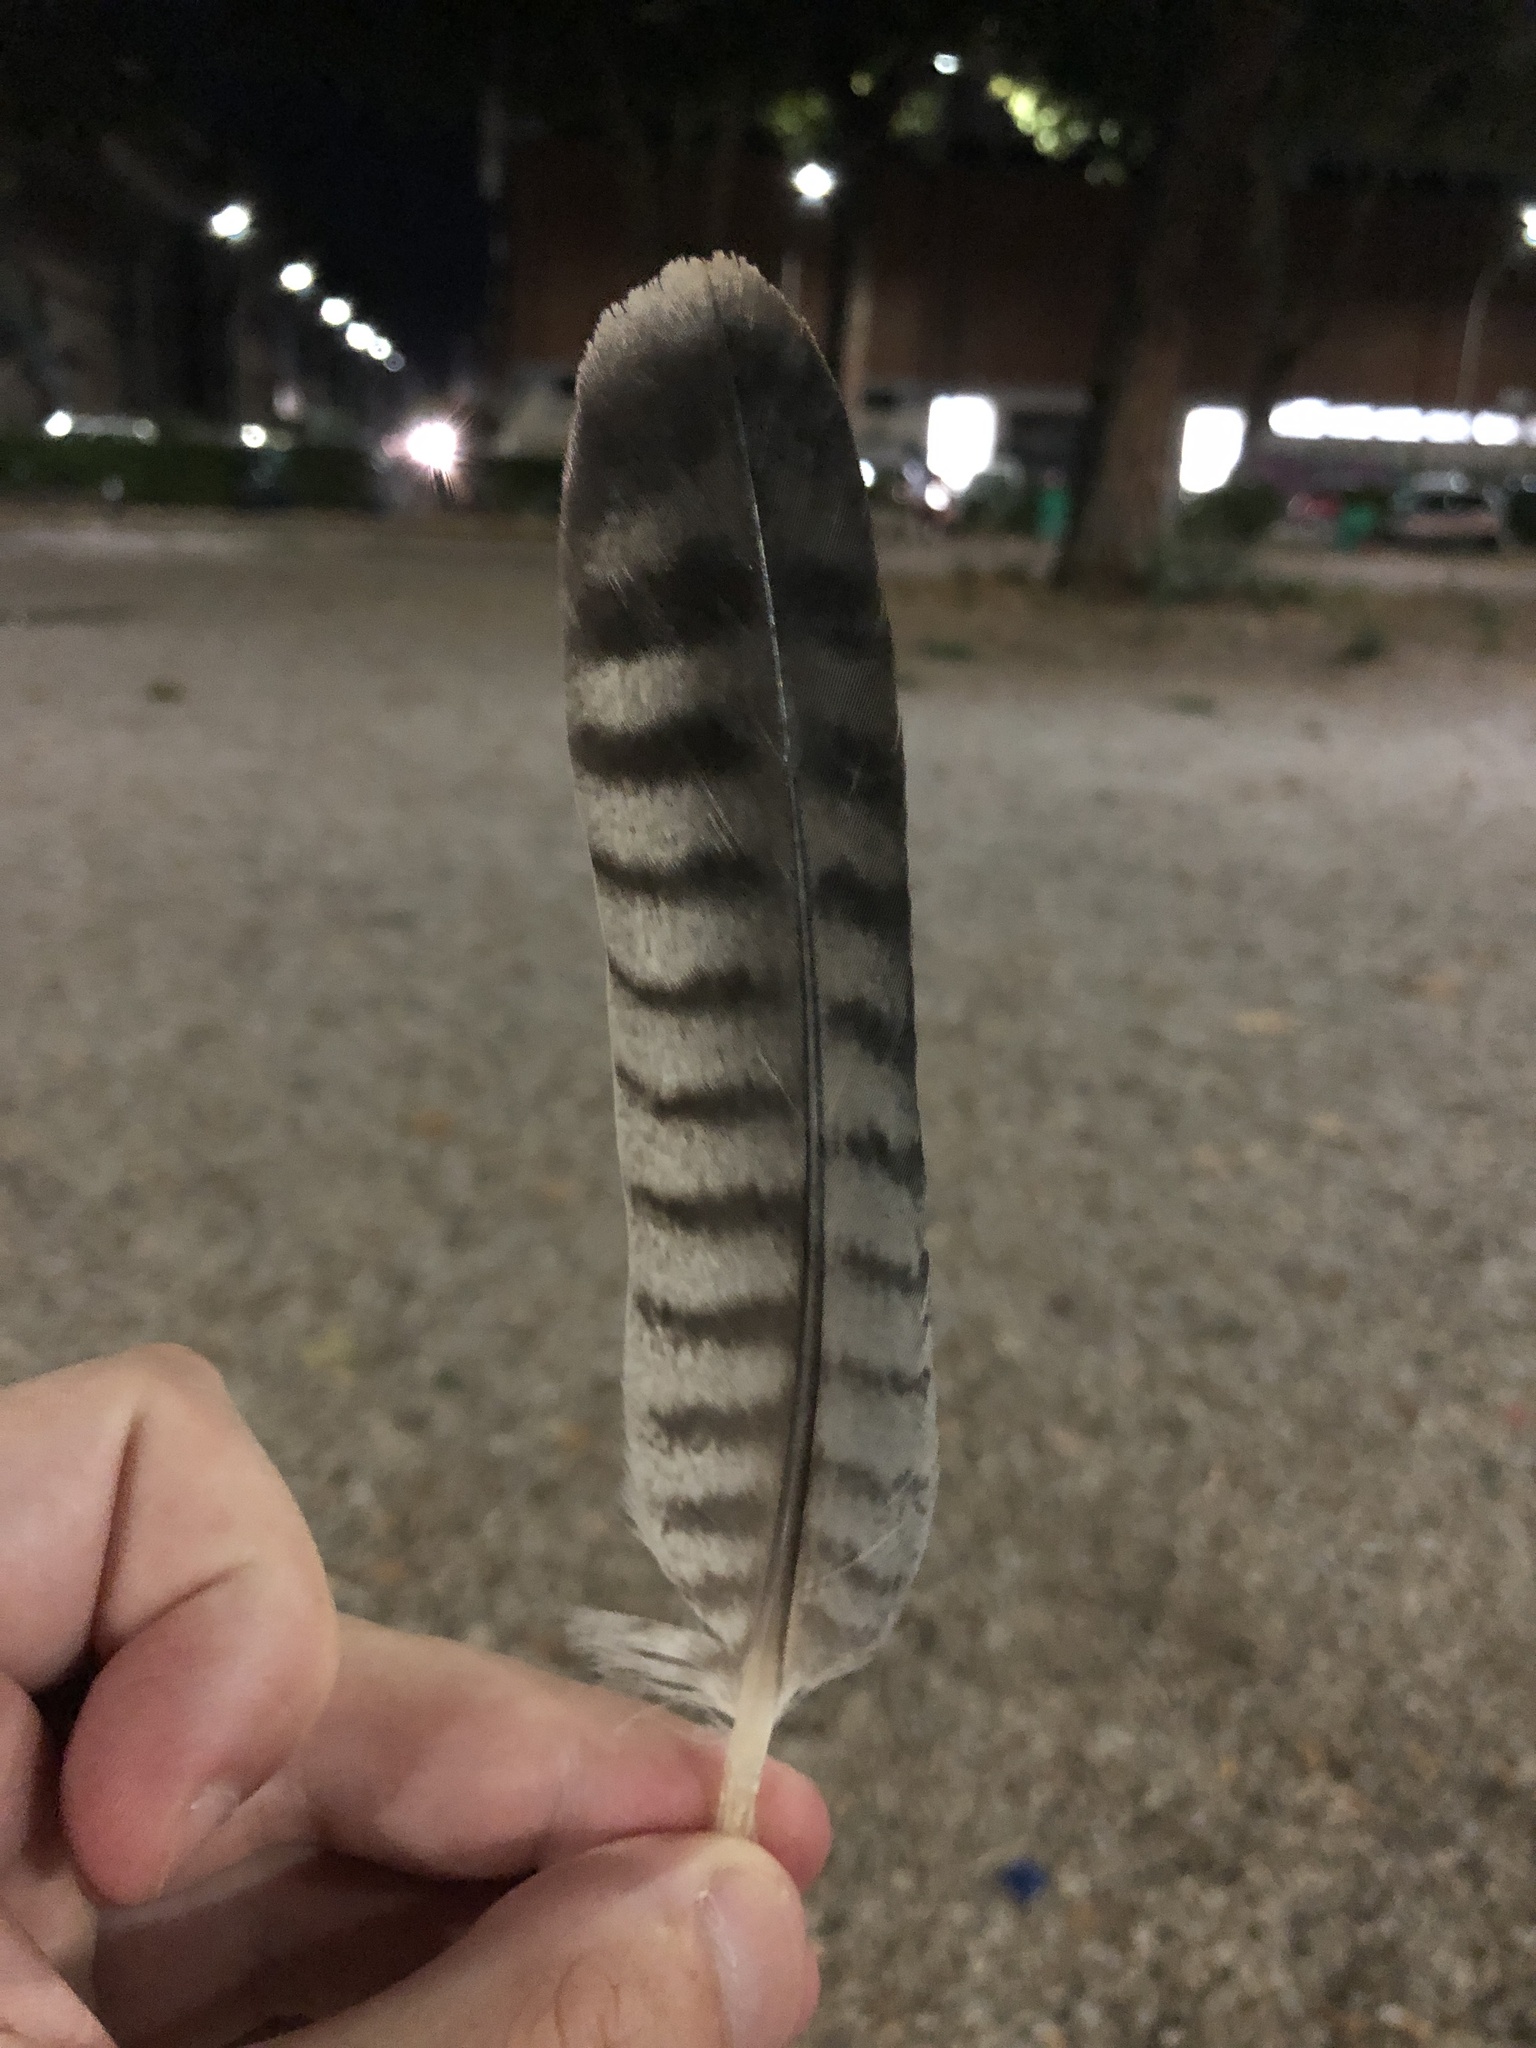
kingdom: Animalia
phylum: Chordata
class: Aves
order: Falconiformes
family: Falconidae
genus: Falco
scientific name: Falco peregrinus
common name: Peregrine falcon
